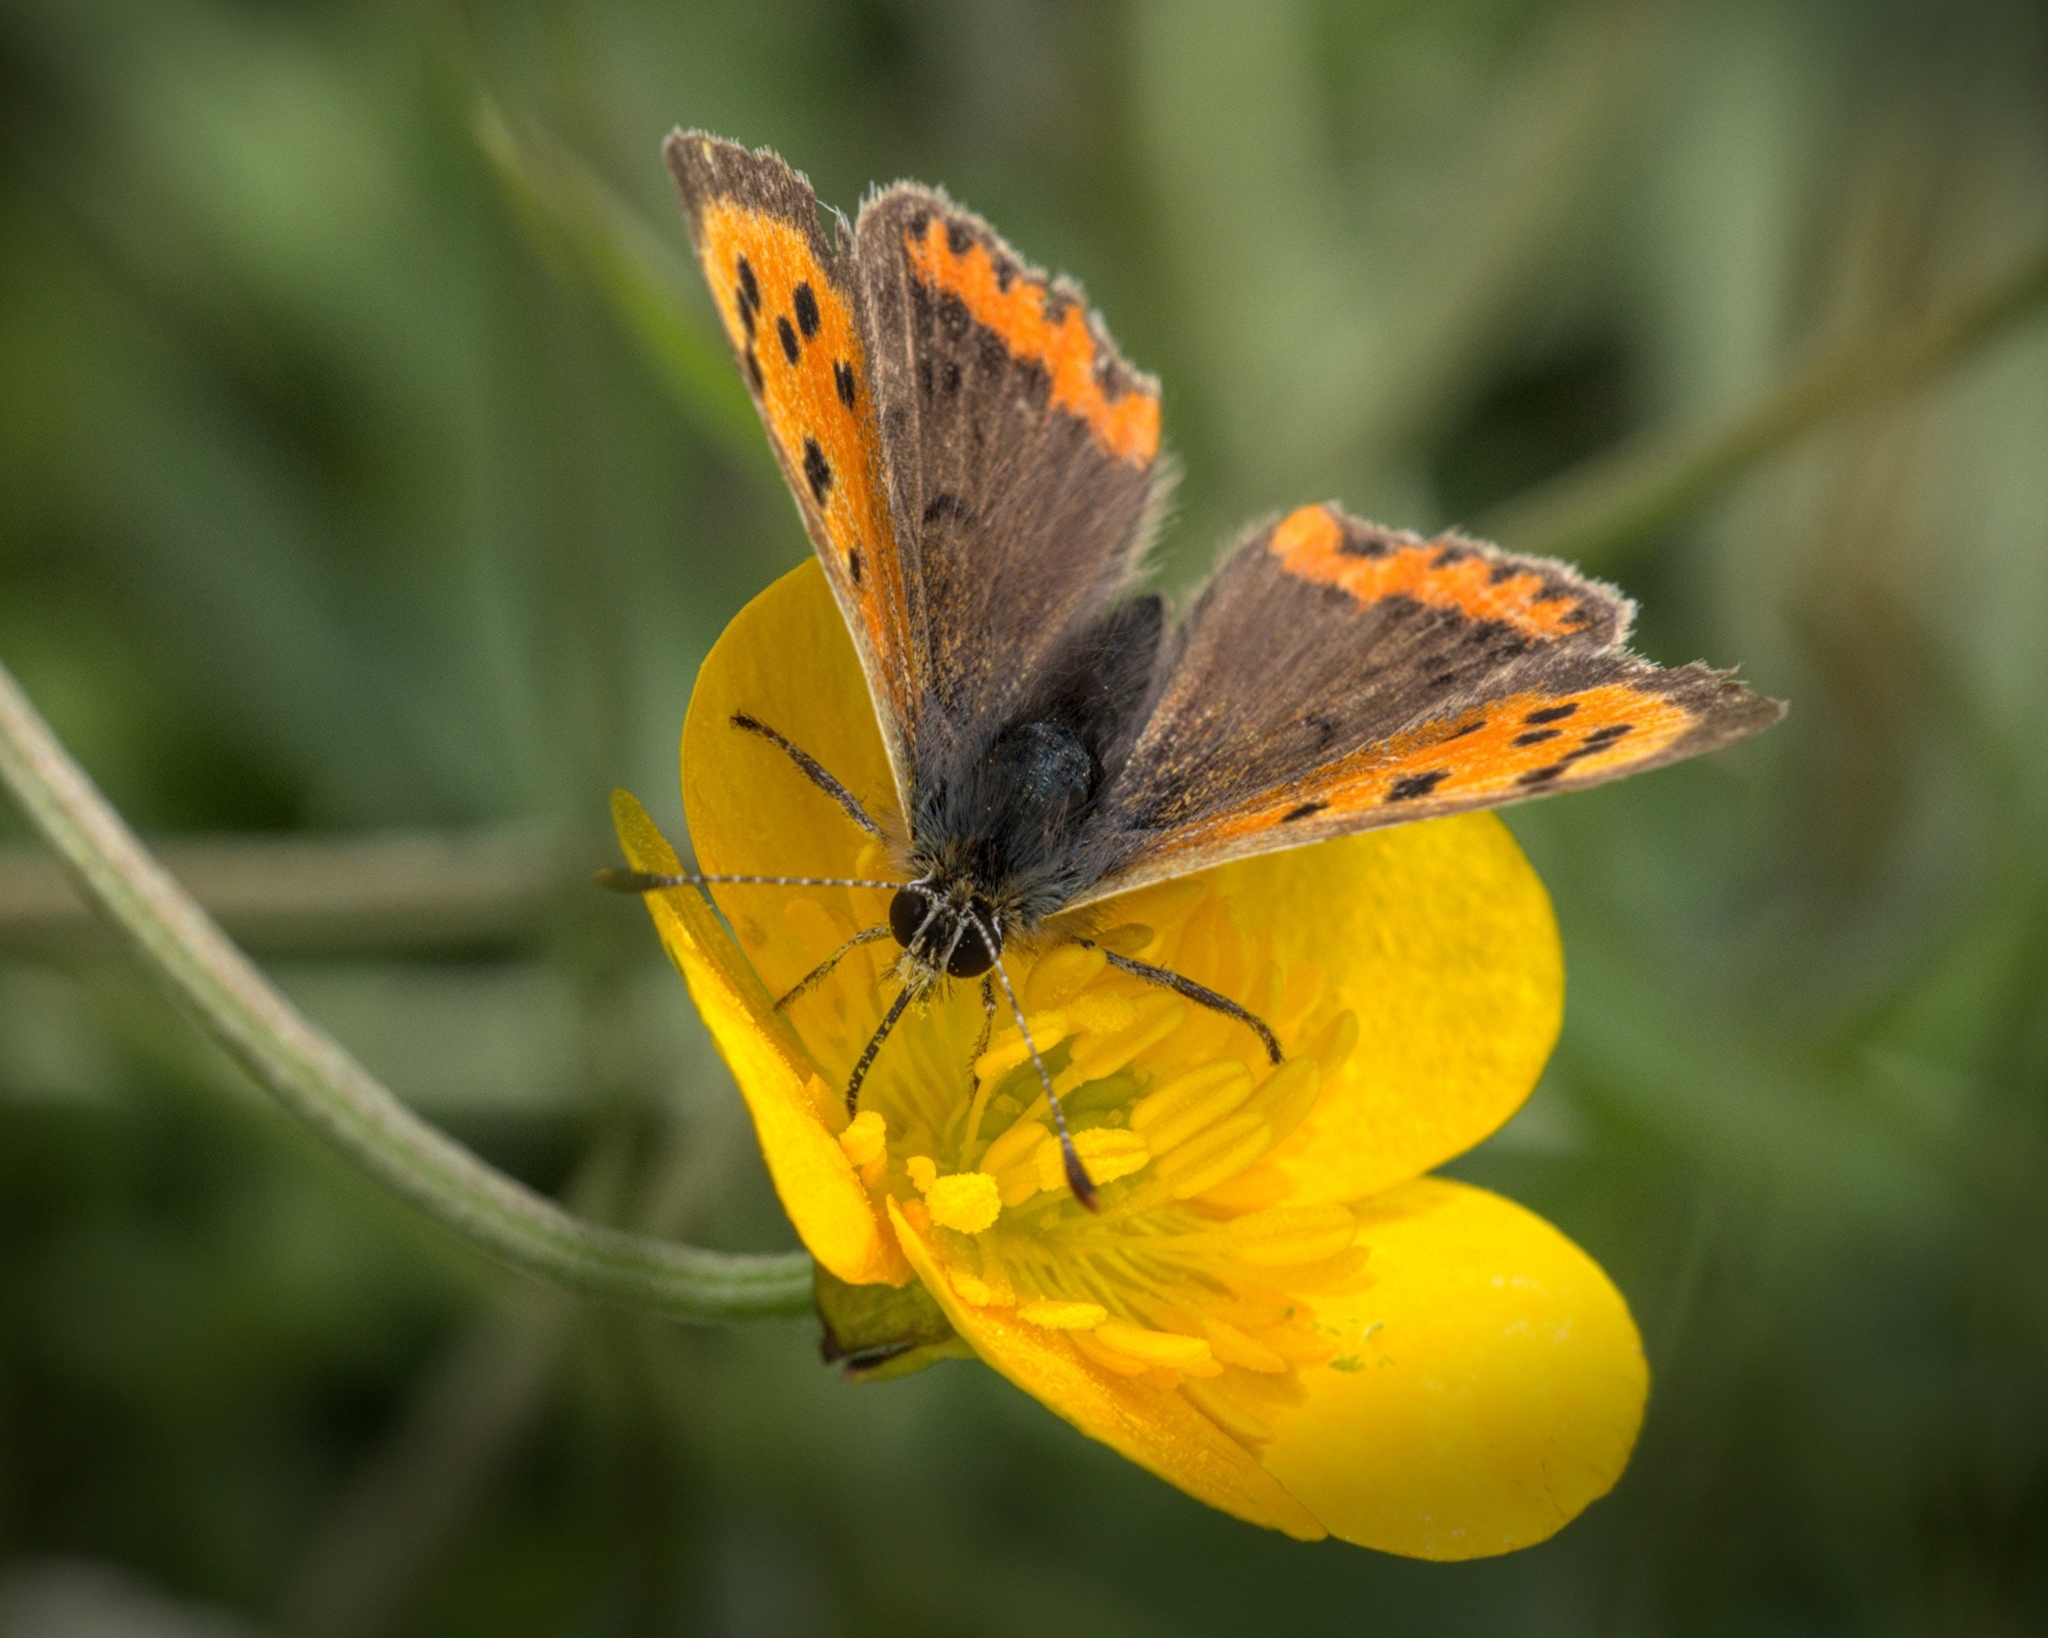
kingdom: Animalia
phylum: Arthropoda
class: Insecta
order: Lepidoptera
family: Lycaenidae
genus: Lycaena
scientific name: Lycaena phlaeas
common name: Small copper
